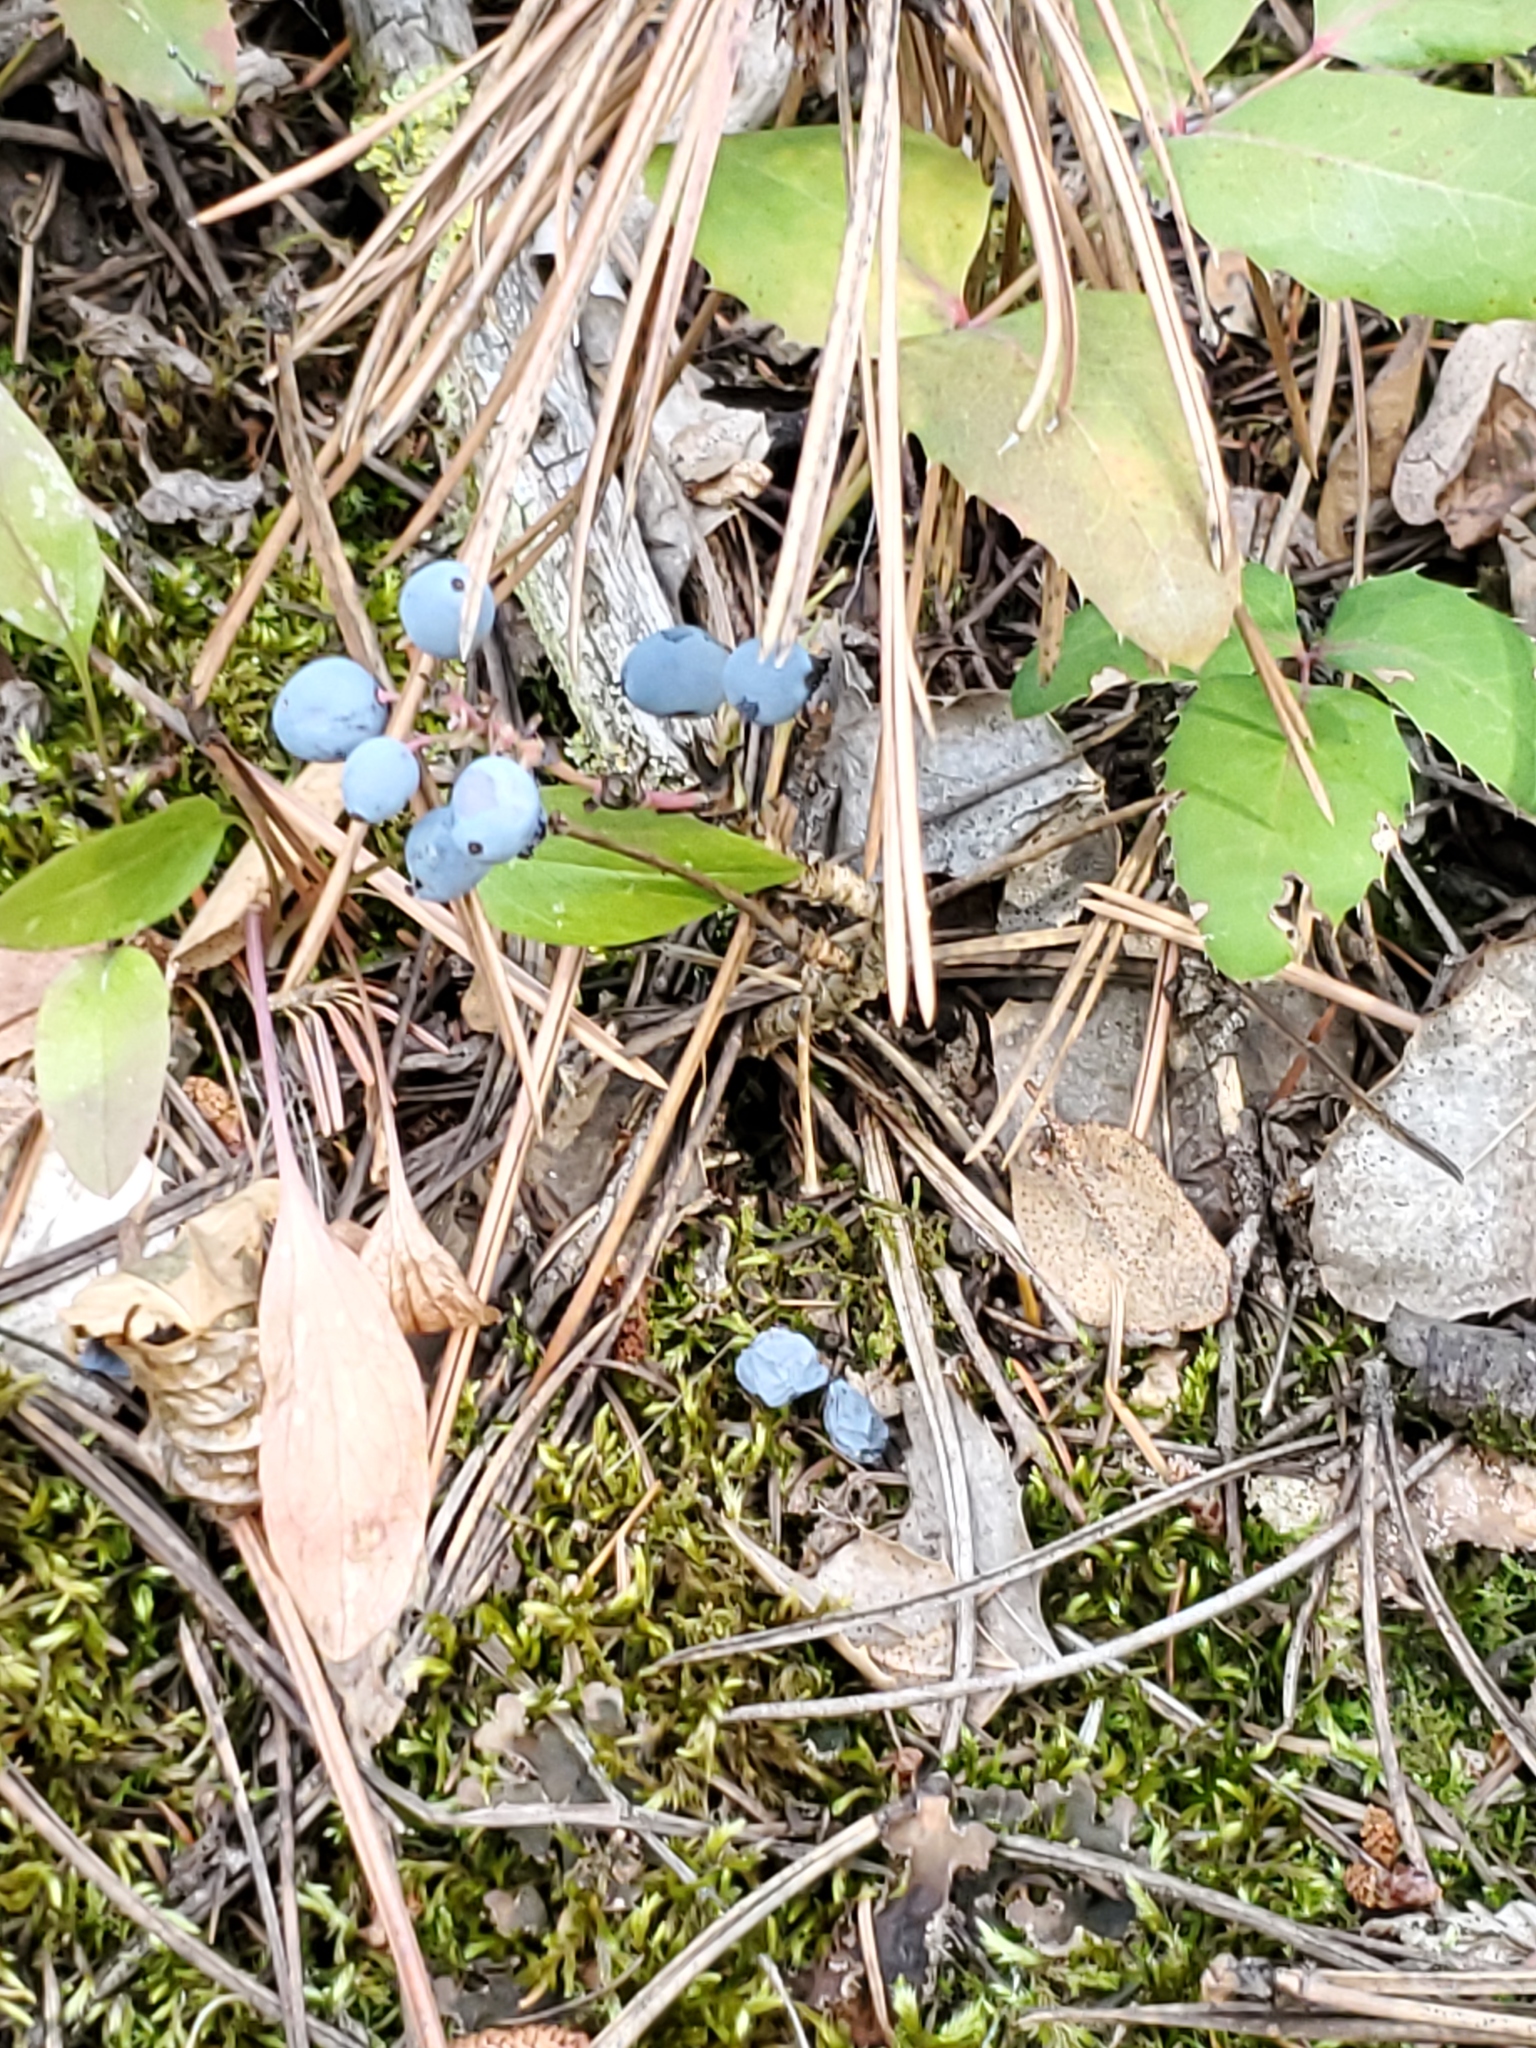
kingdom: Plantae
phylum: Tracheophyta
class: Magnoliopsida
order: Ranunculales
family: Berberidaceae
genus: Mahonia
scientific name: Mahonia repens
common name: Creeping oregon-grape
